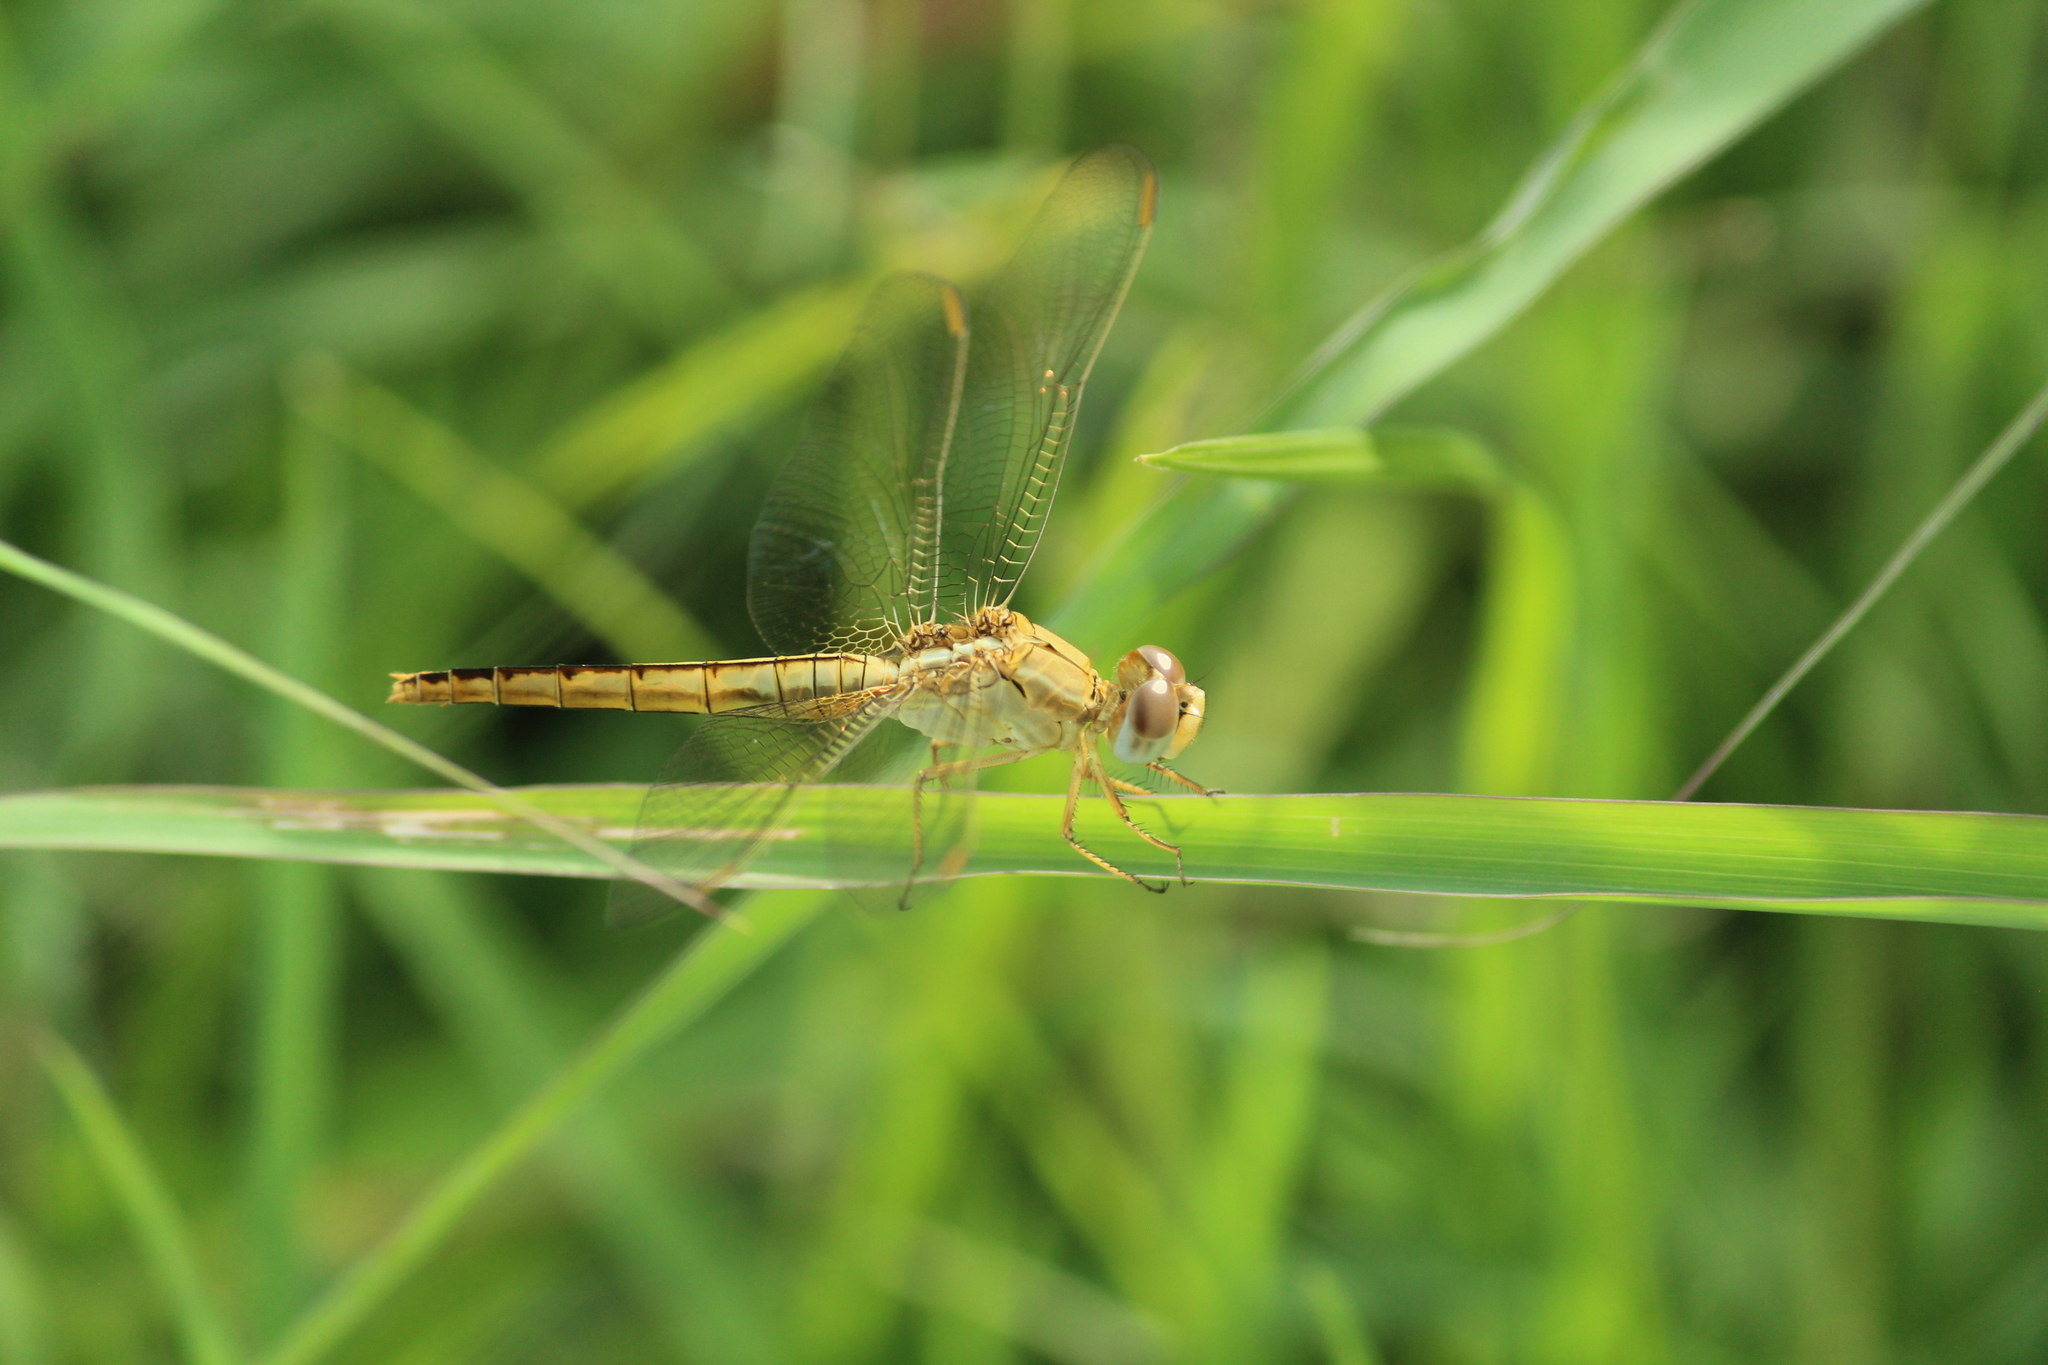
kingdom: Animalia
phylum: Arthropoda
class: Insecta
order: Odonata
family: Libellulidae
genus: Crocothemis
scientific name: Crocothemis servilia
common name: Scarlet skimmer
